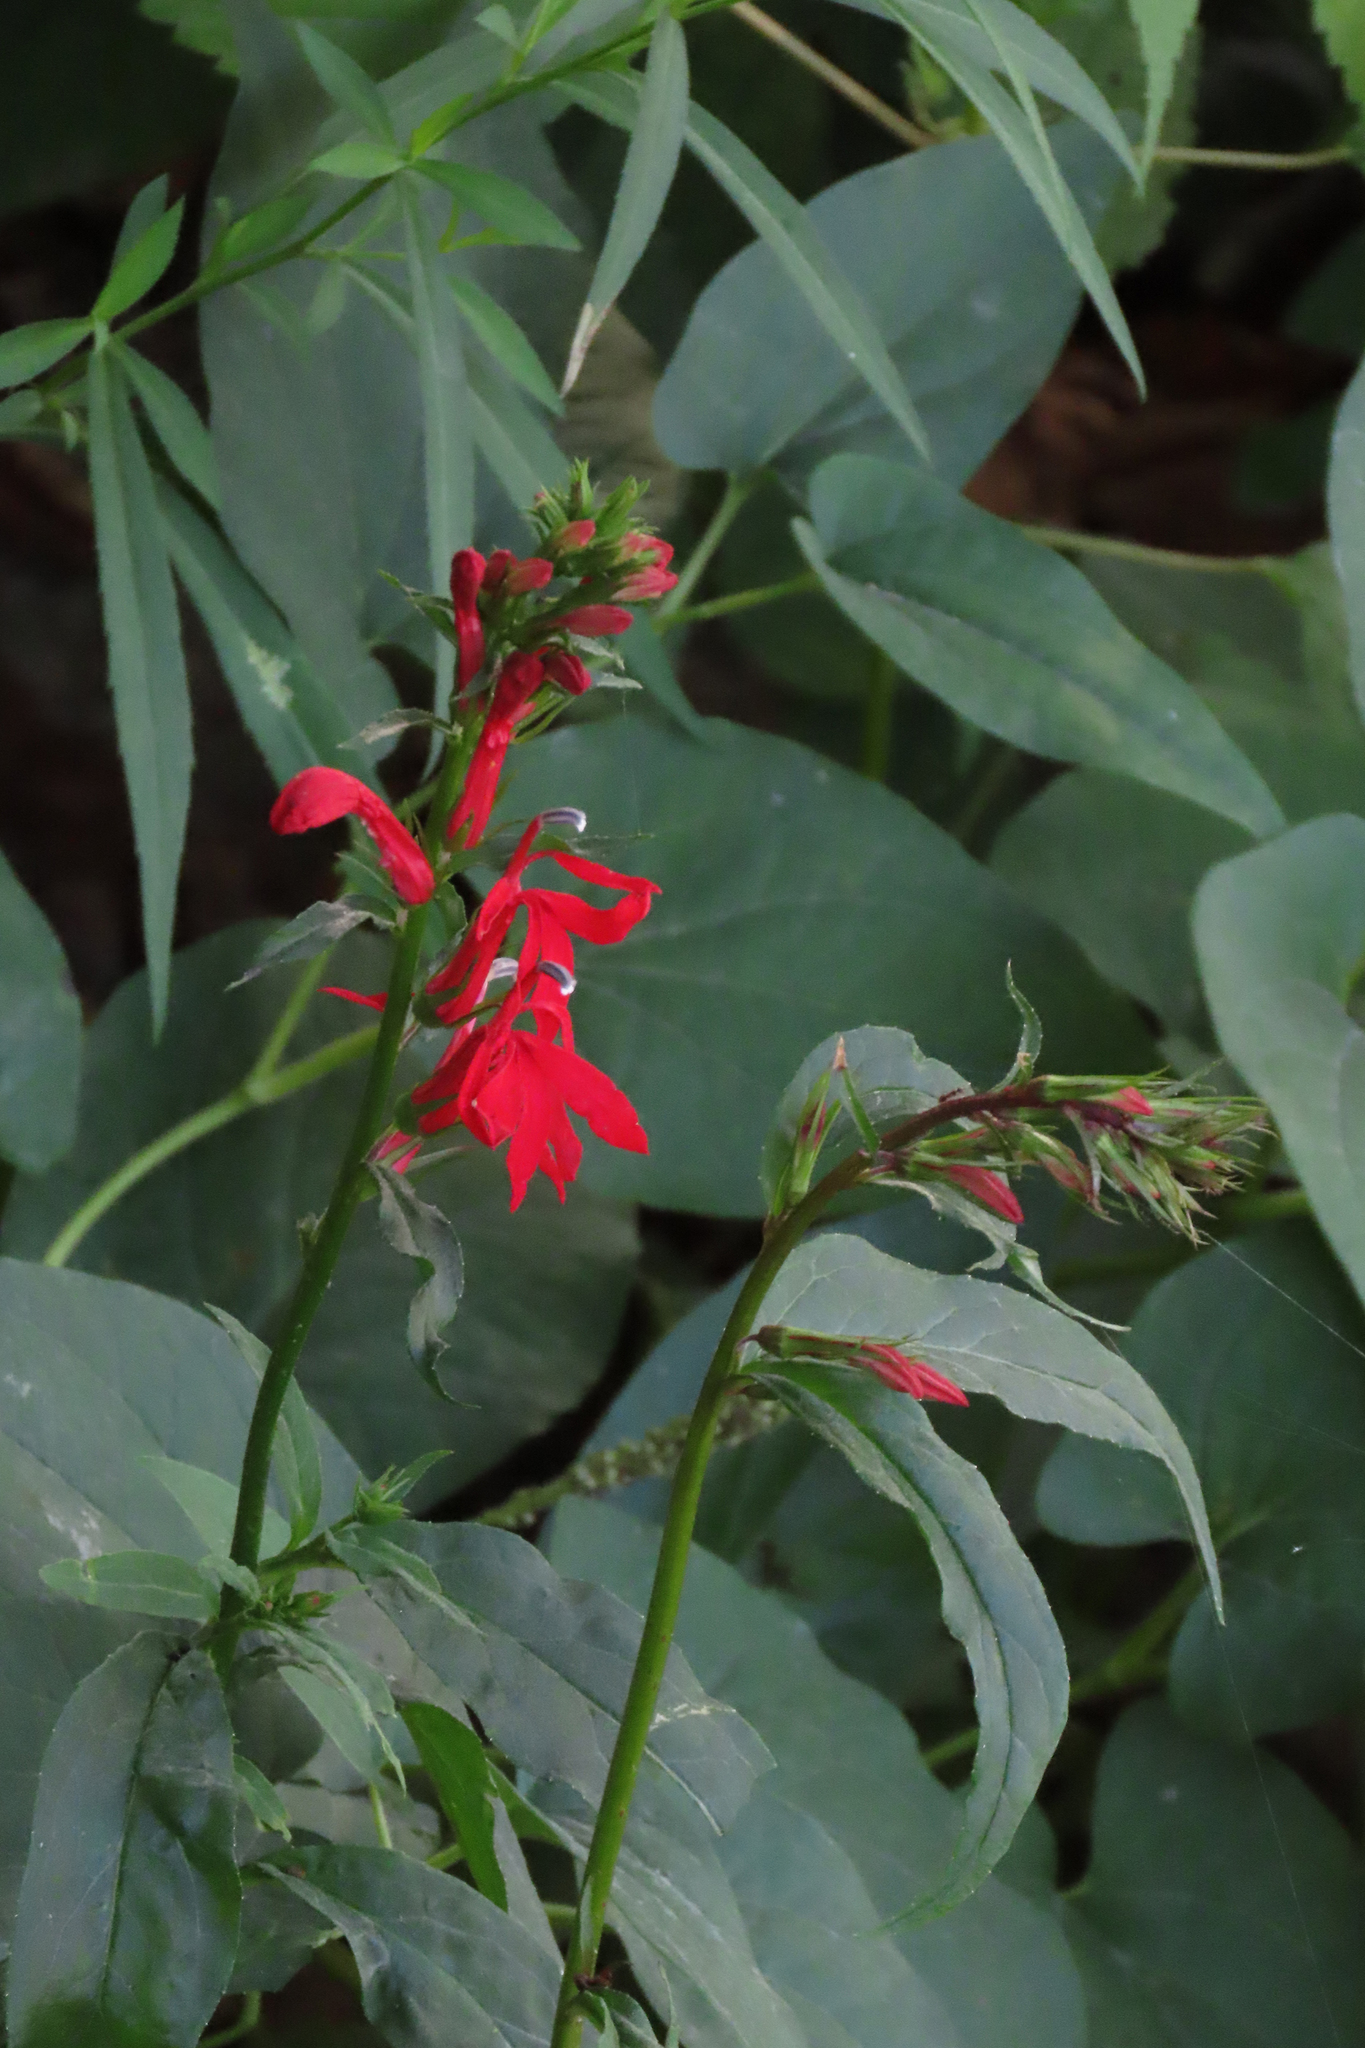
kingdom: Plantae
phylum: Tracheophyta
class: Magnoliopsida
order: Asterales
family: Campanulaceae
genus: Lobelia
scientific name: Lobelia cardinalis
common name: Cardinal flower
